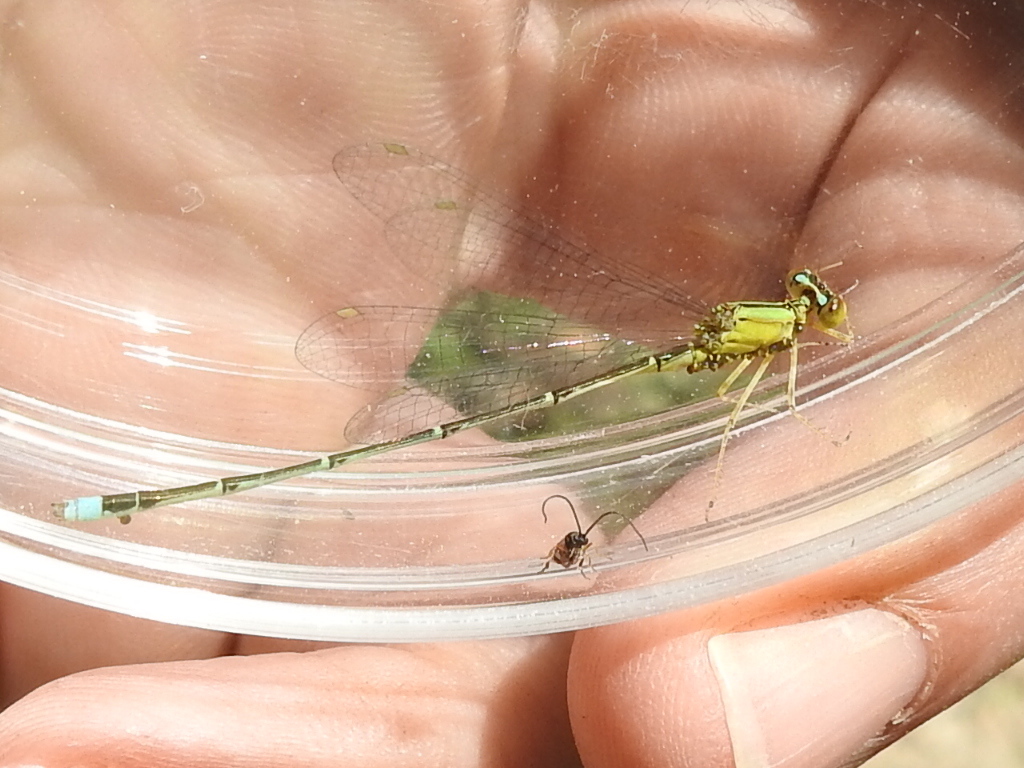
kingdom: Animalia
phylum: Arthropoda
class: Insecta
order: Odonata
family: Coenagrionidae
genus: Enallagma
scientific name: Enallagma vesperum
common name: Vesper bluet
